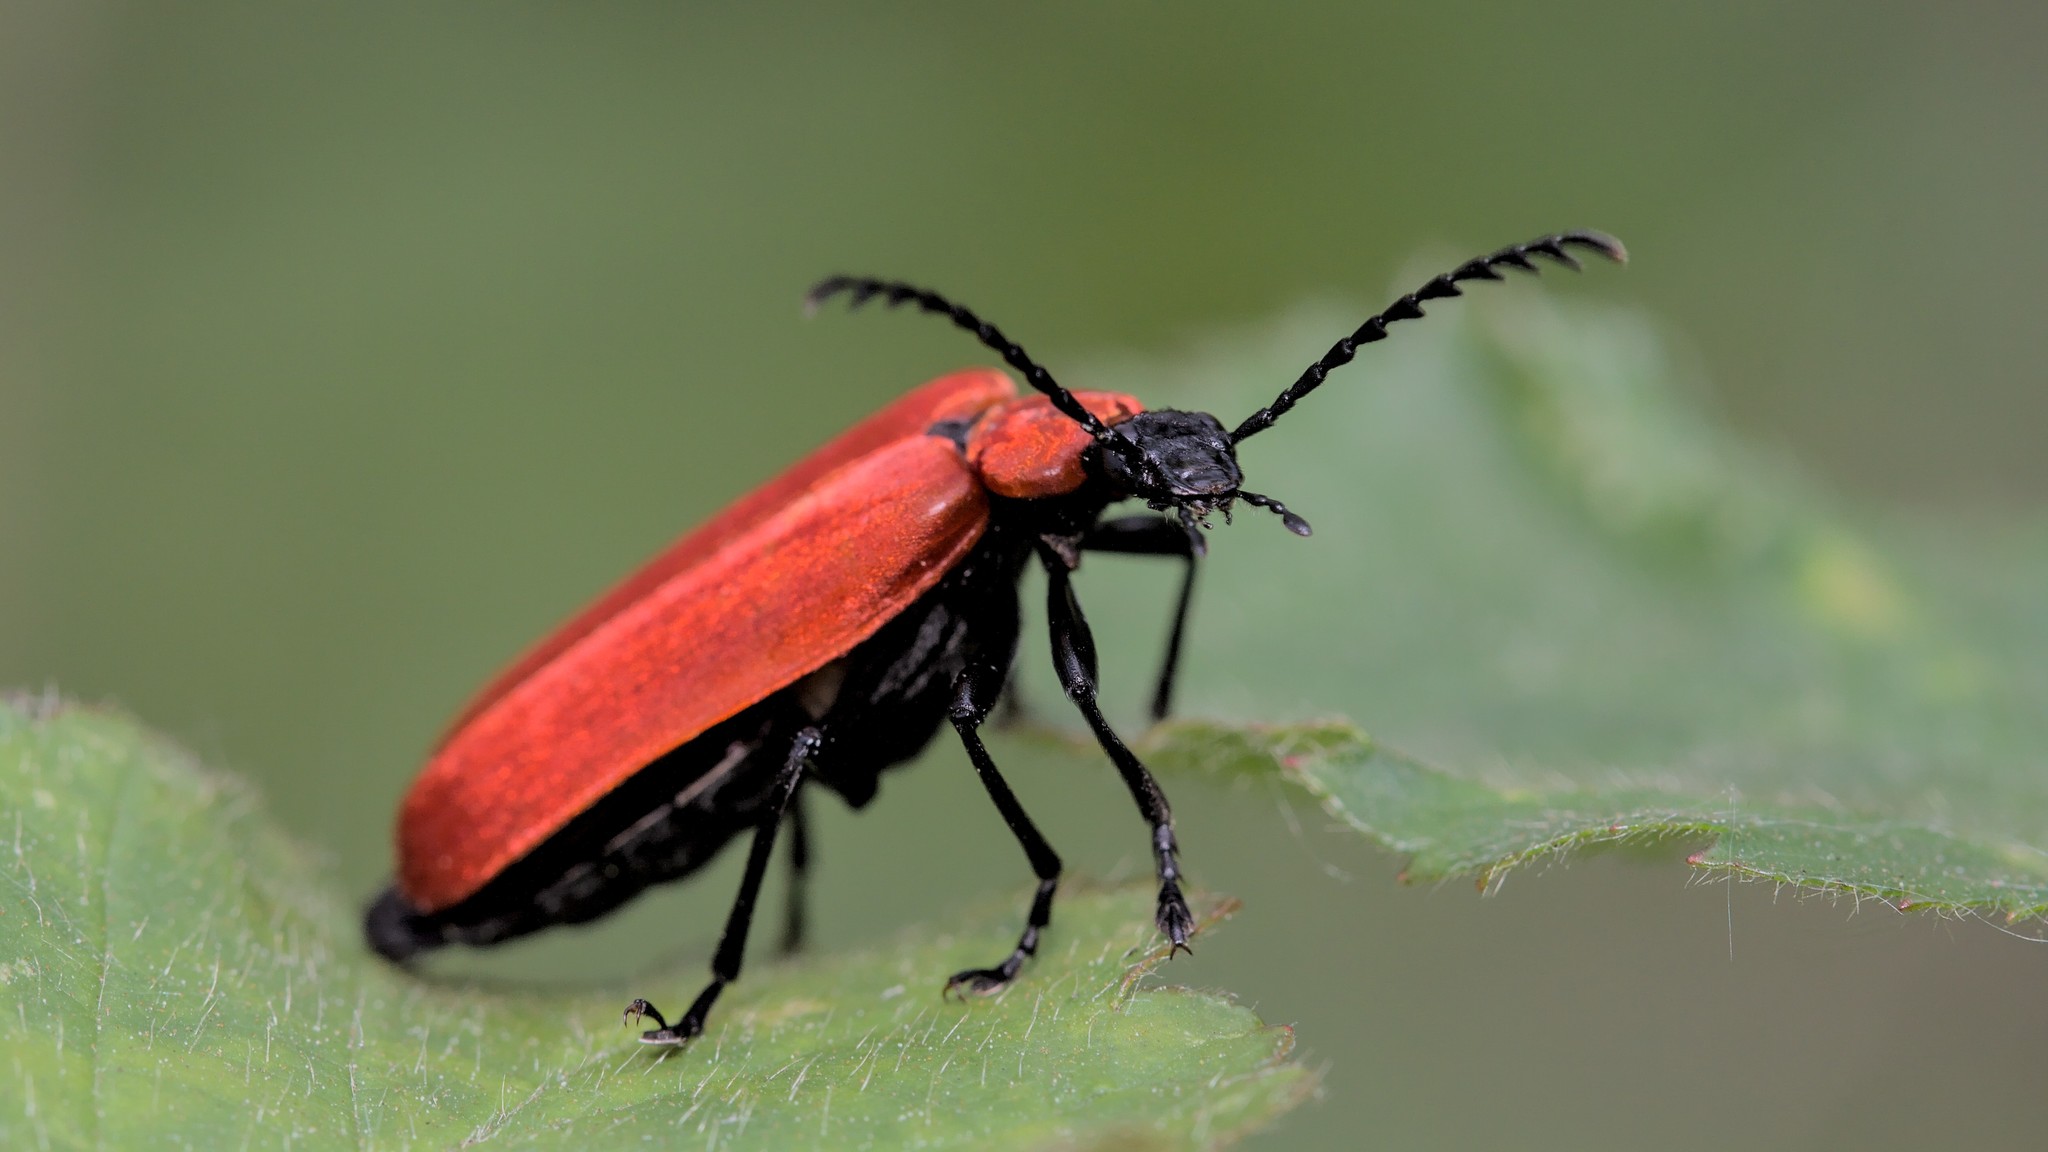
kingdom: Animalia
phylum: Arthropoda
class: Insecta
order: Coleoptera
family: Pyrochroidae
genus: Pyrochroa
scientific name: Pyrochroa coccinea
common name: Black-headed cardinal beetle
